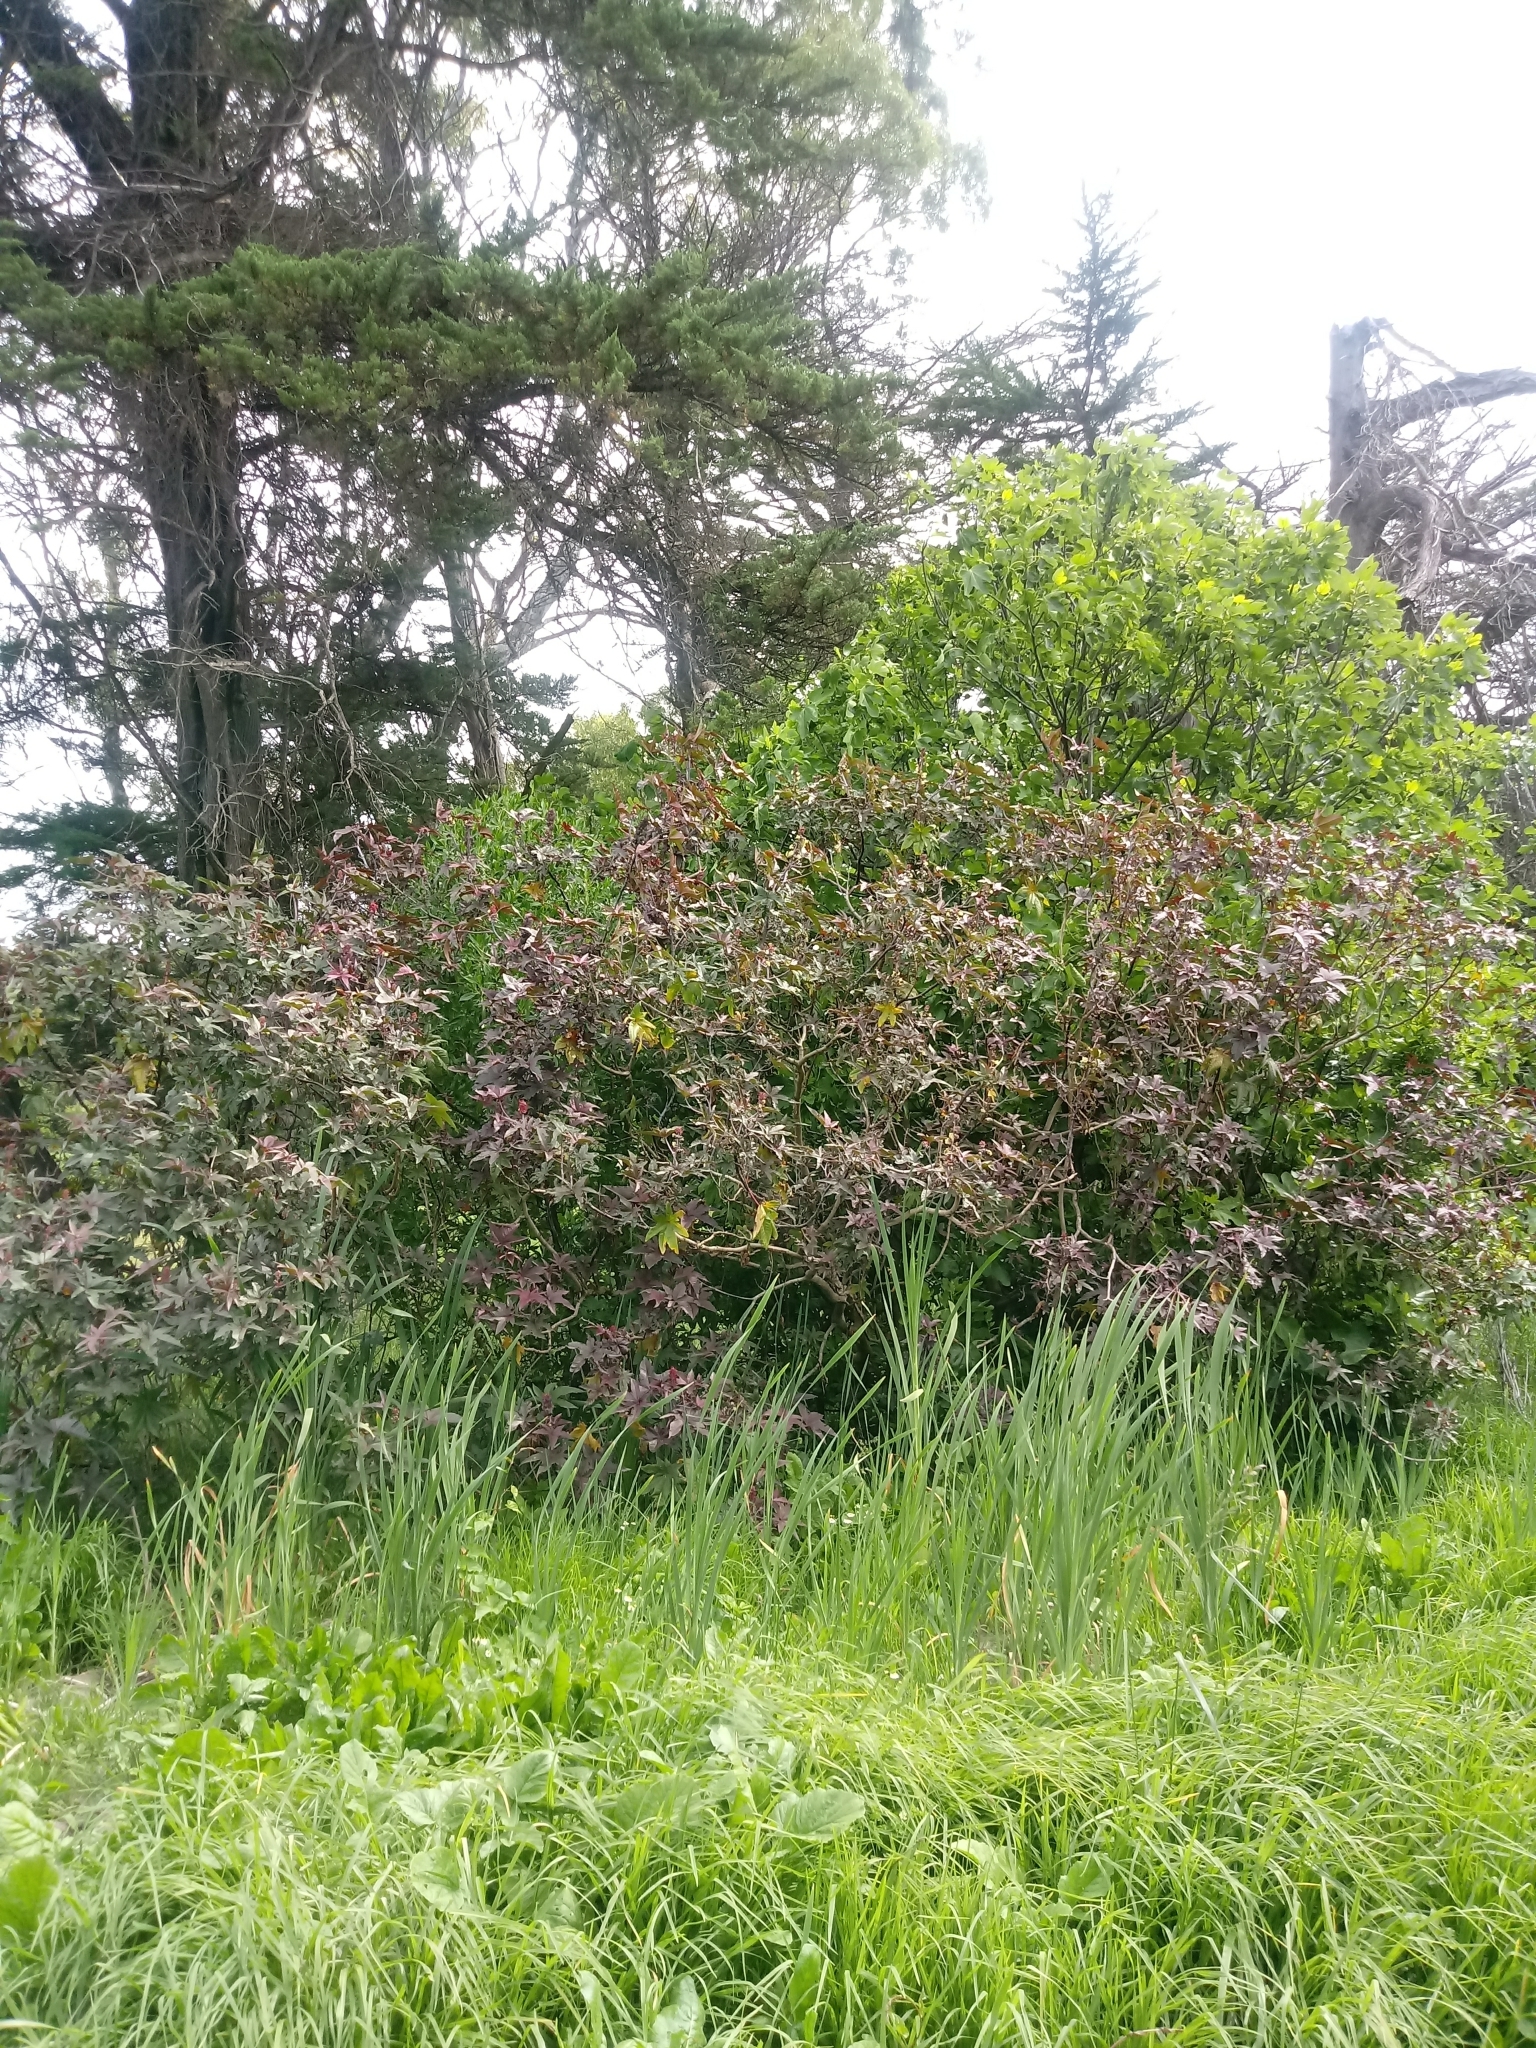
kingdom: Plantae
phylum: Tracheophyta
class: Magnoliopsida
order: Malpighiales
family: Euphorbiaceae
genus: Ricinus
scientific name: Ricinus communis
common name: Castor-oil-plant
